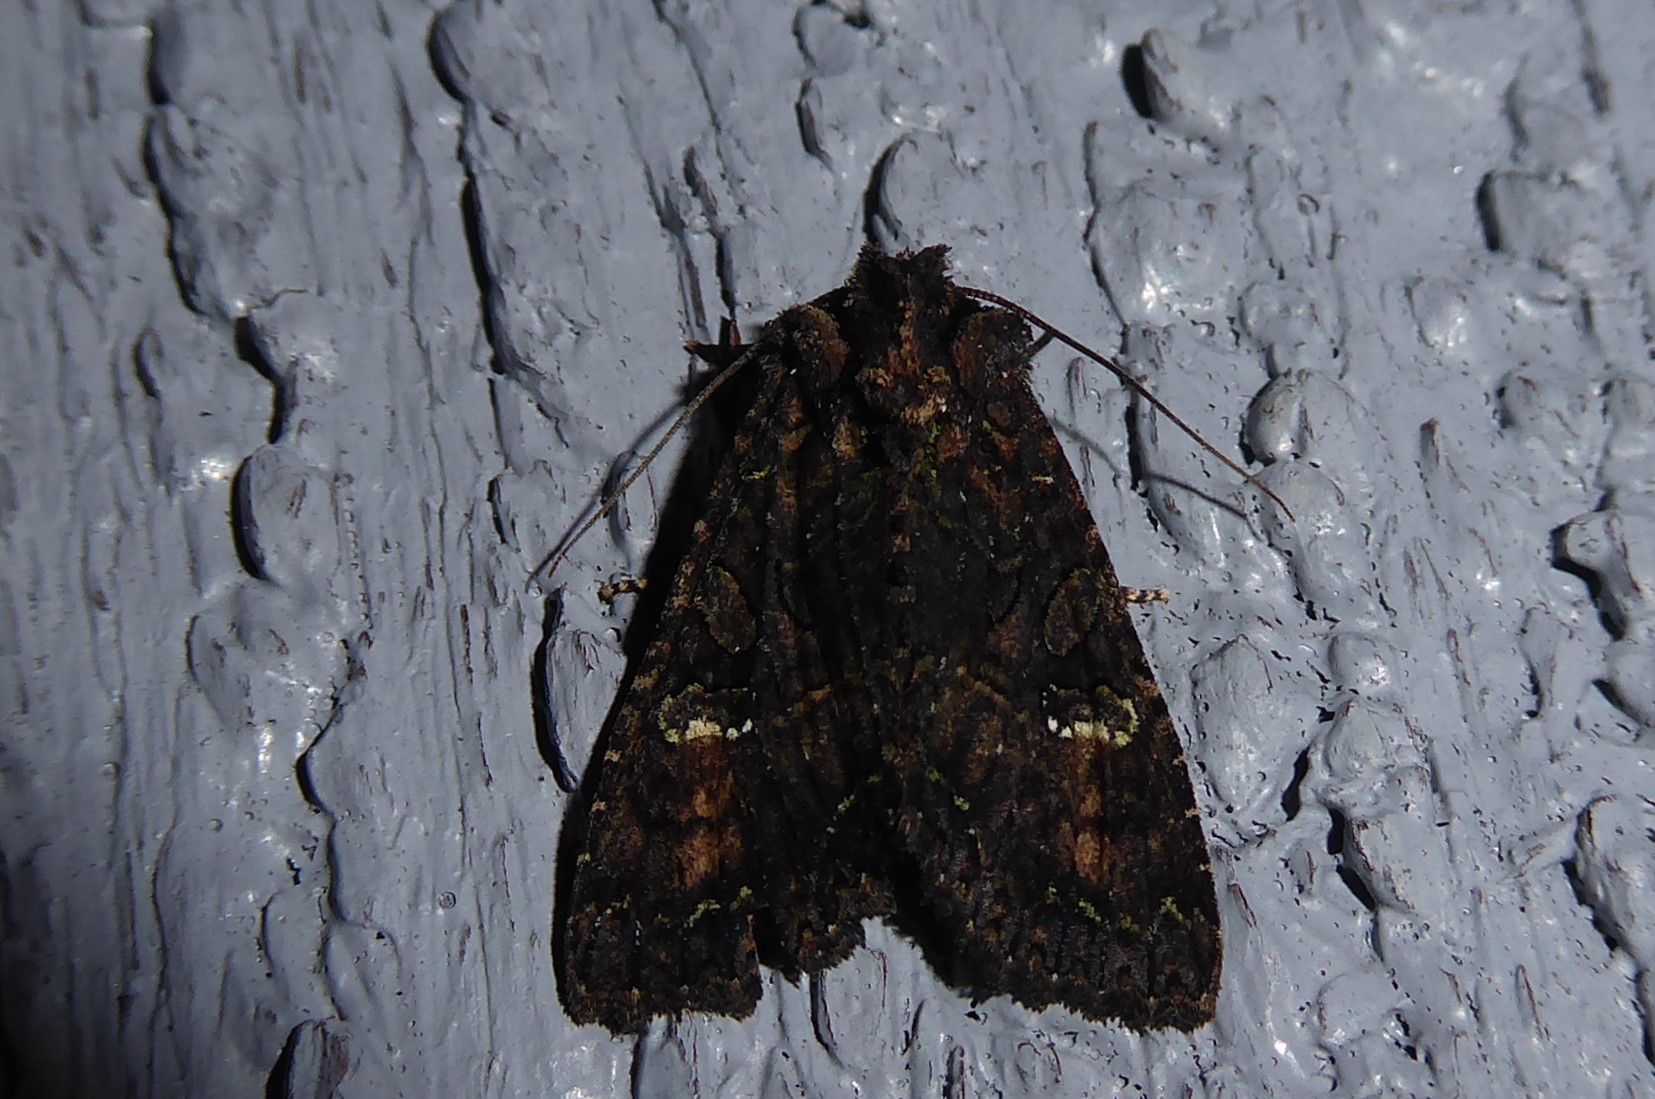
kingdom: Animalia
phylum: Arthropoda
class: Insecta
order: Lepidoptera
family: Noctuidae
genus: Meterana
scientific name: Meterana ochthistis
